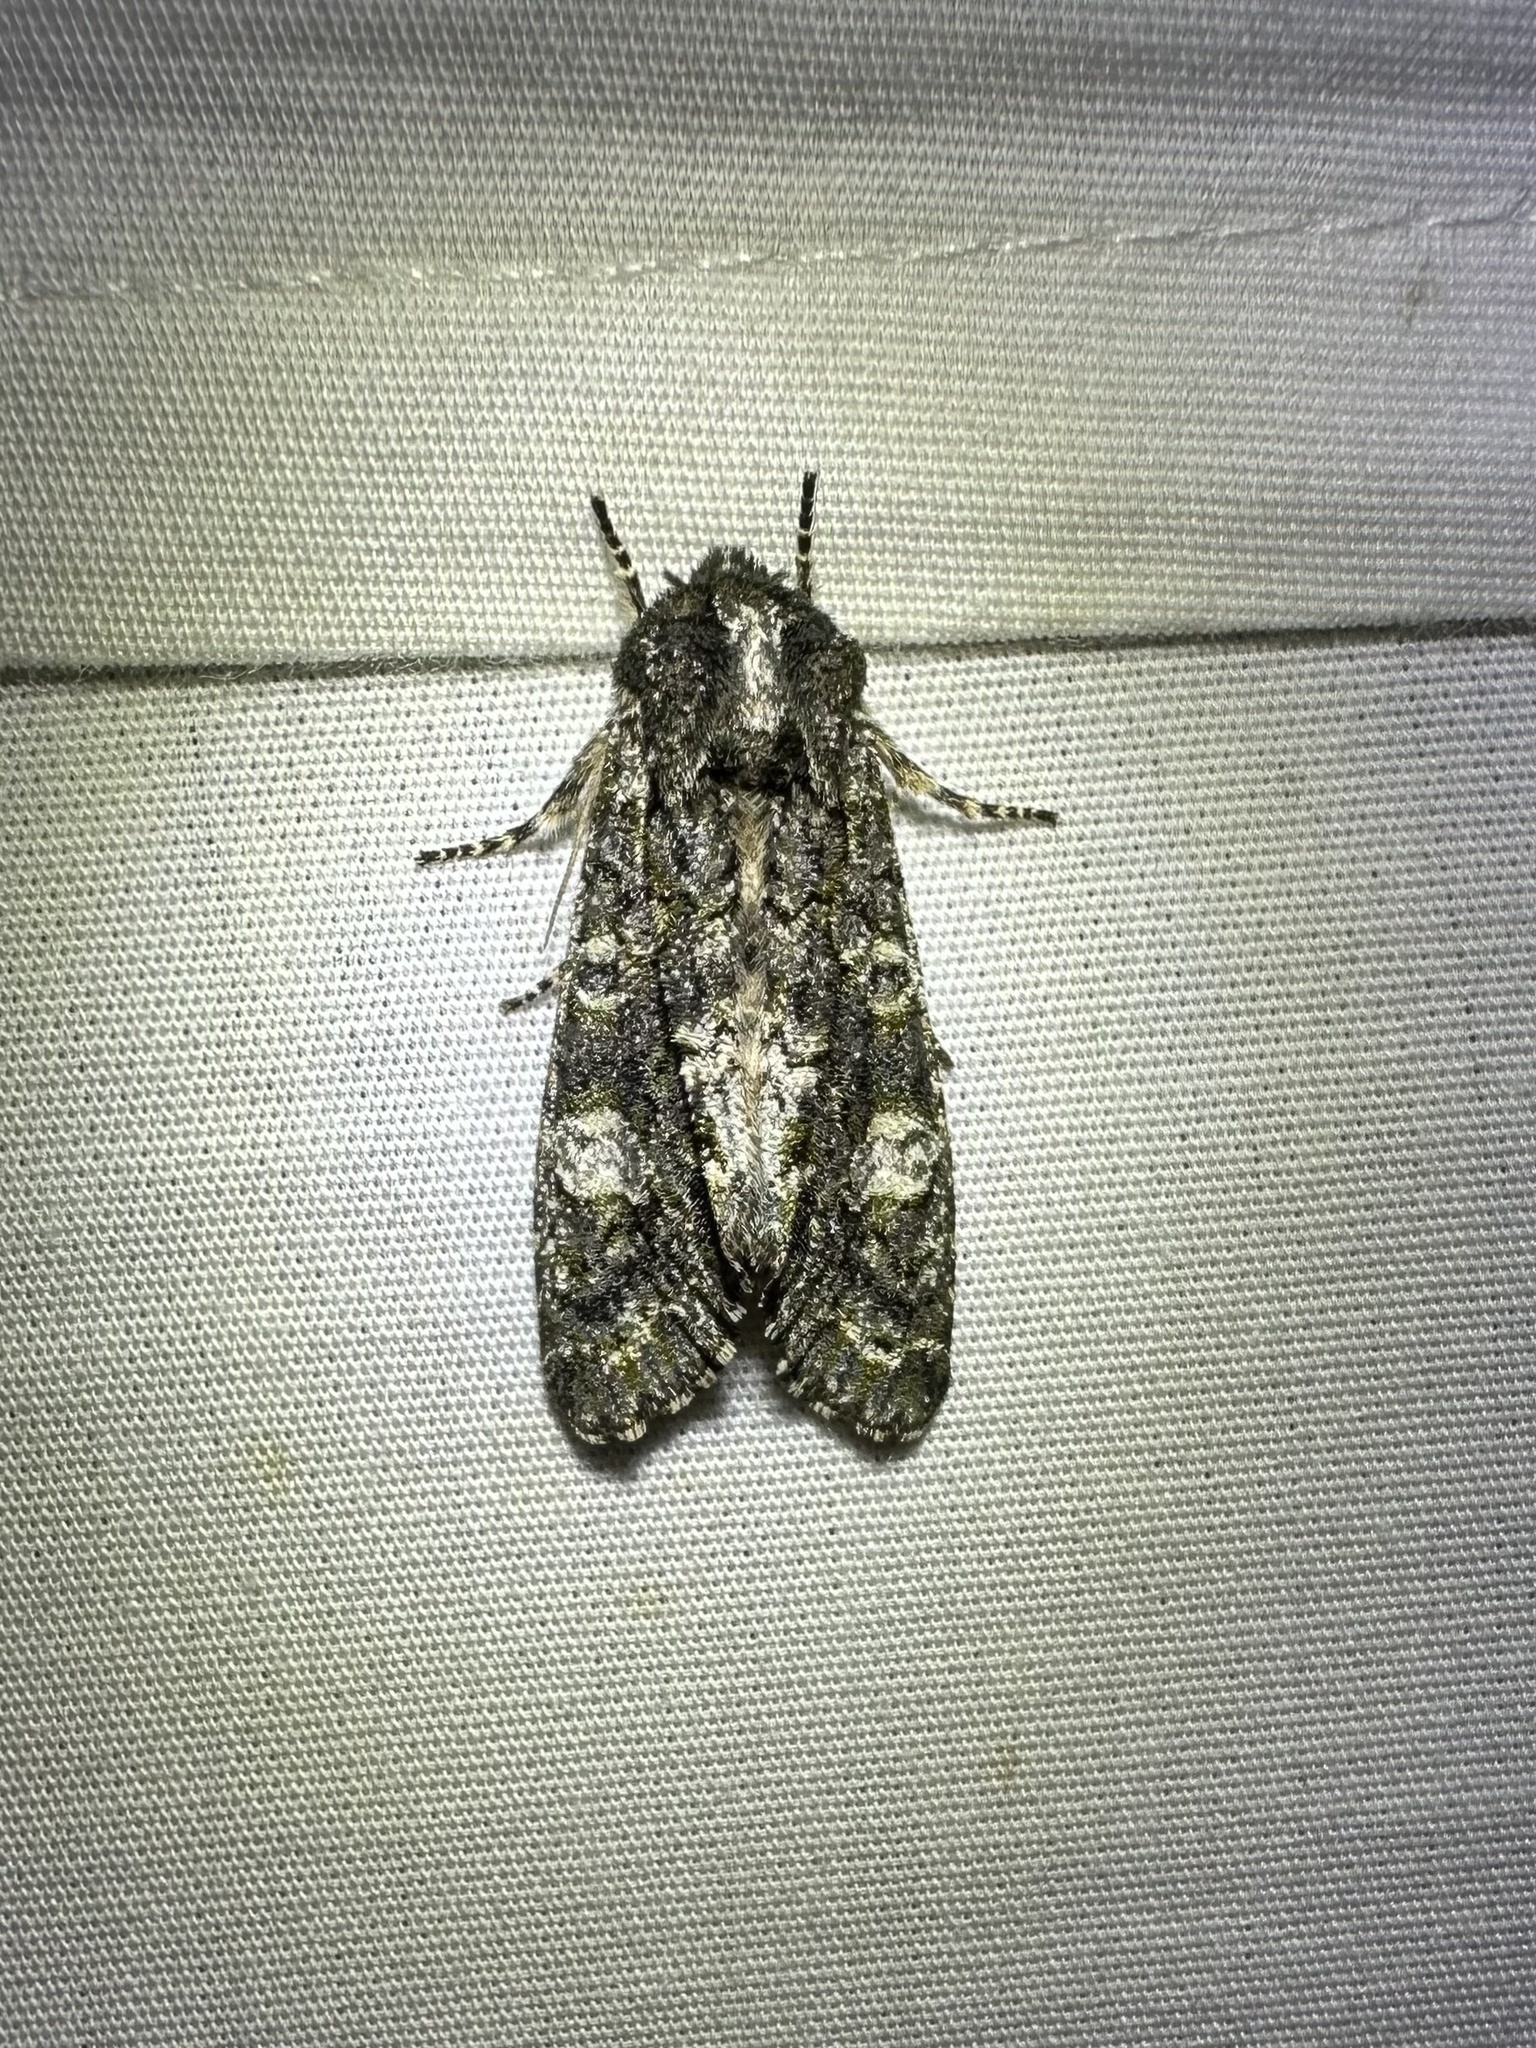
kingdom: Animalia
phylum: Arthropoda
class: Insecta
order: Lepidoptera
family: Noctuidae
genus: Psaphida
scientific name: Psaphida grotei
